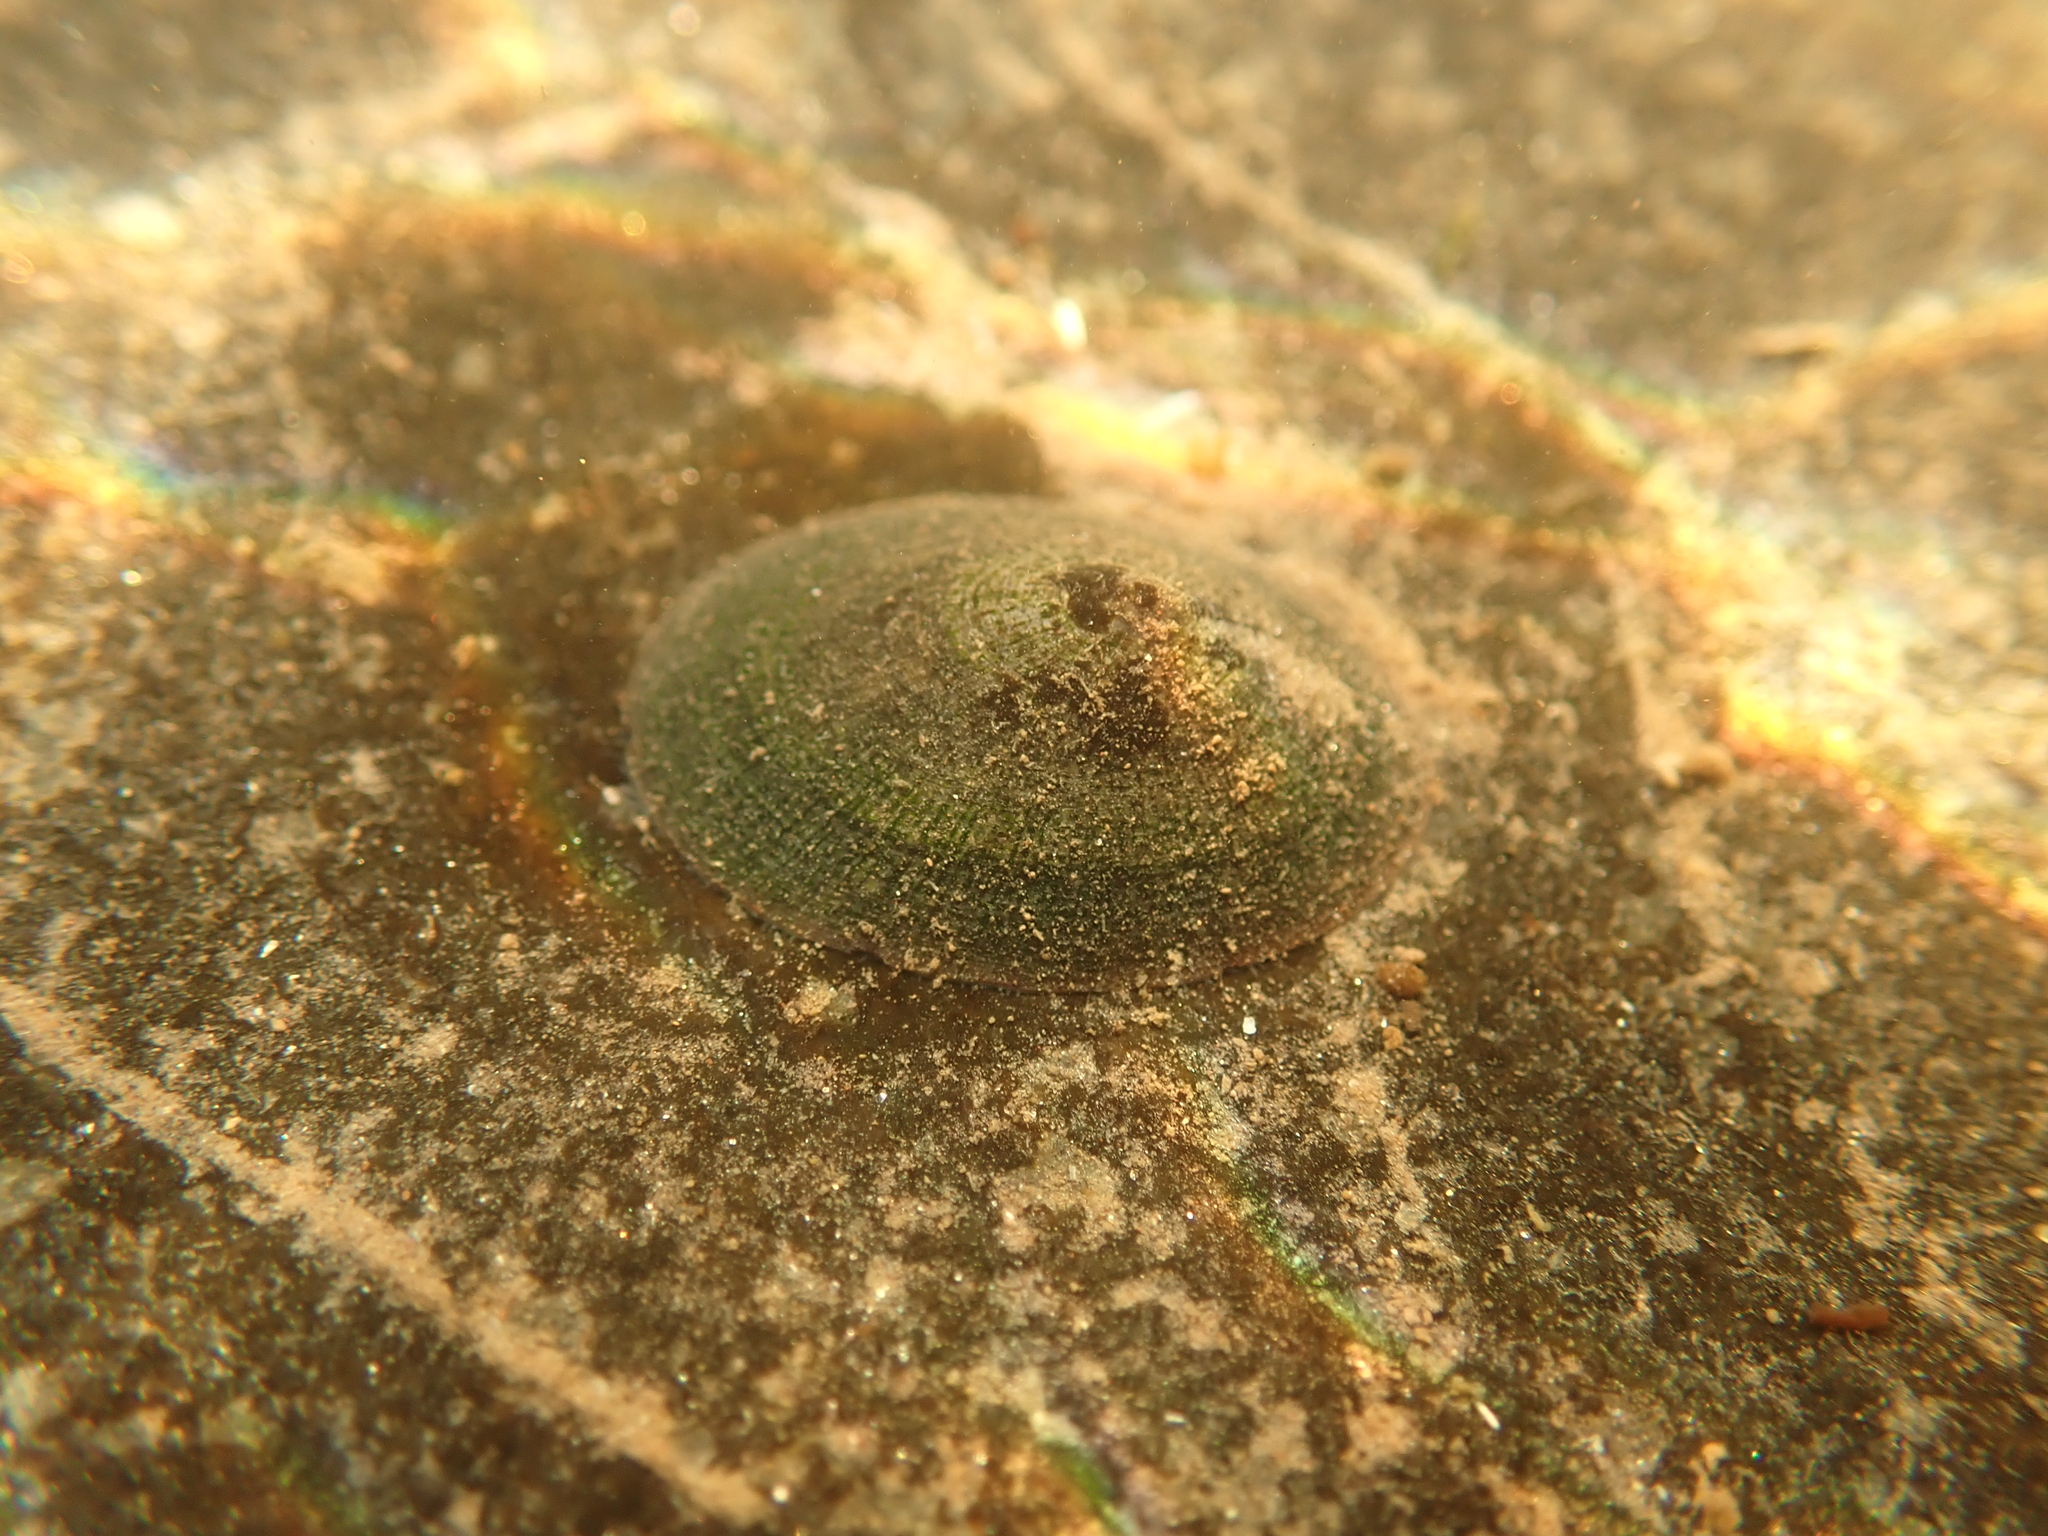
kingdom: Animalia
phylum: Mollusca
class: Gastropoda
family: Lottiidae
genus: Testudinalia
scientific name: Testudinalia testudinalis
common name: Common tortoiseshell limpet
